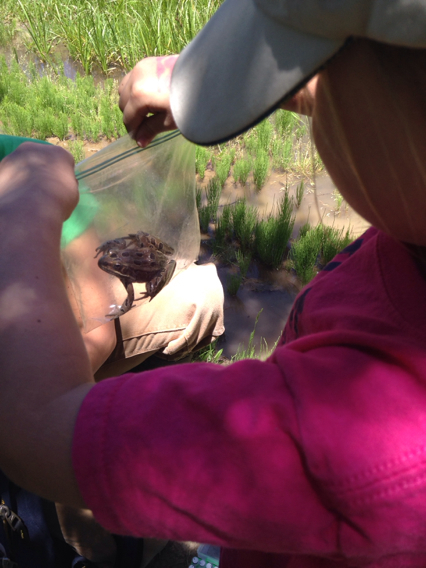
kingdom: Animalia
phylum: Chordata
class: Amphibia
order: Anura
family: Ranidae
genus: Lithobates
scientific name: Lithobates pipiens
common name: Northern leopard frog
